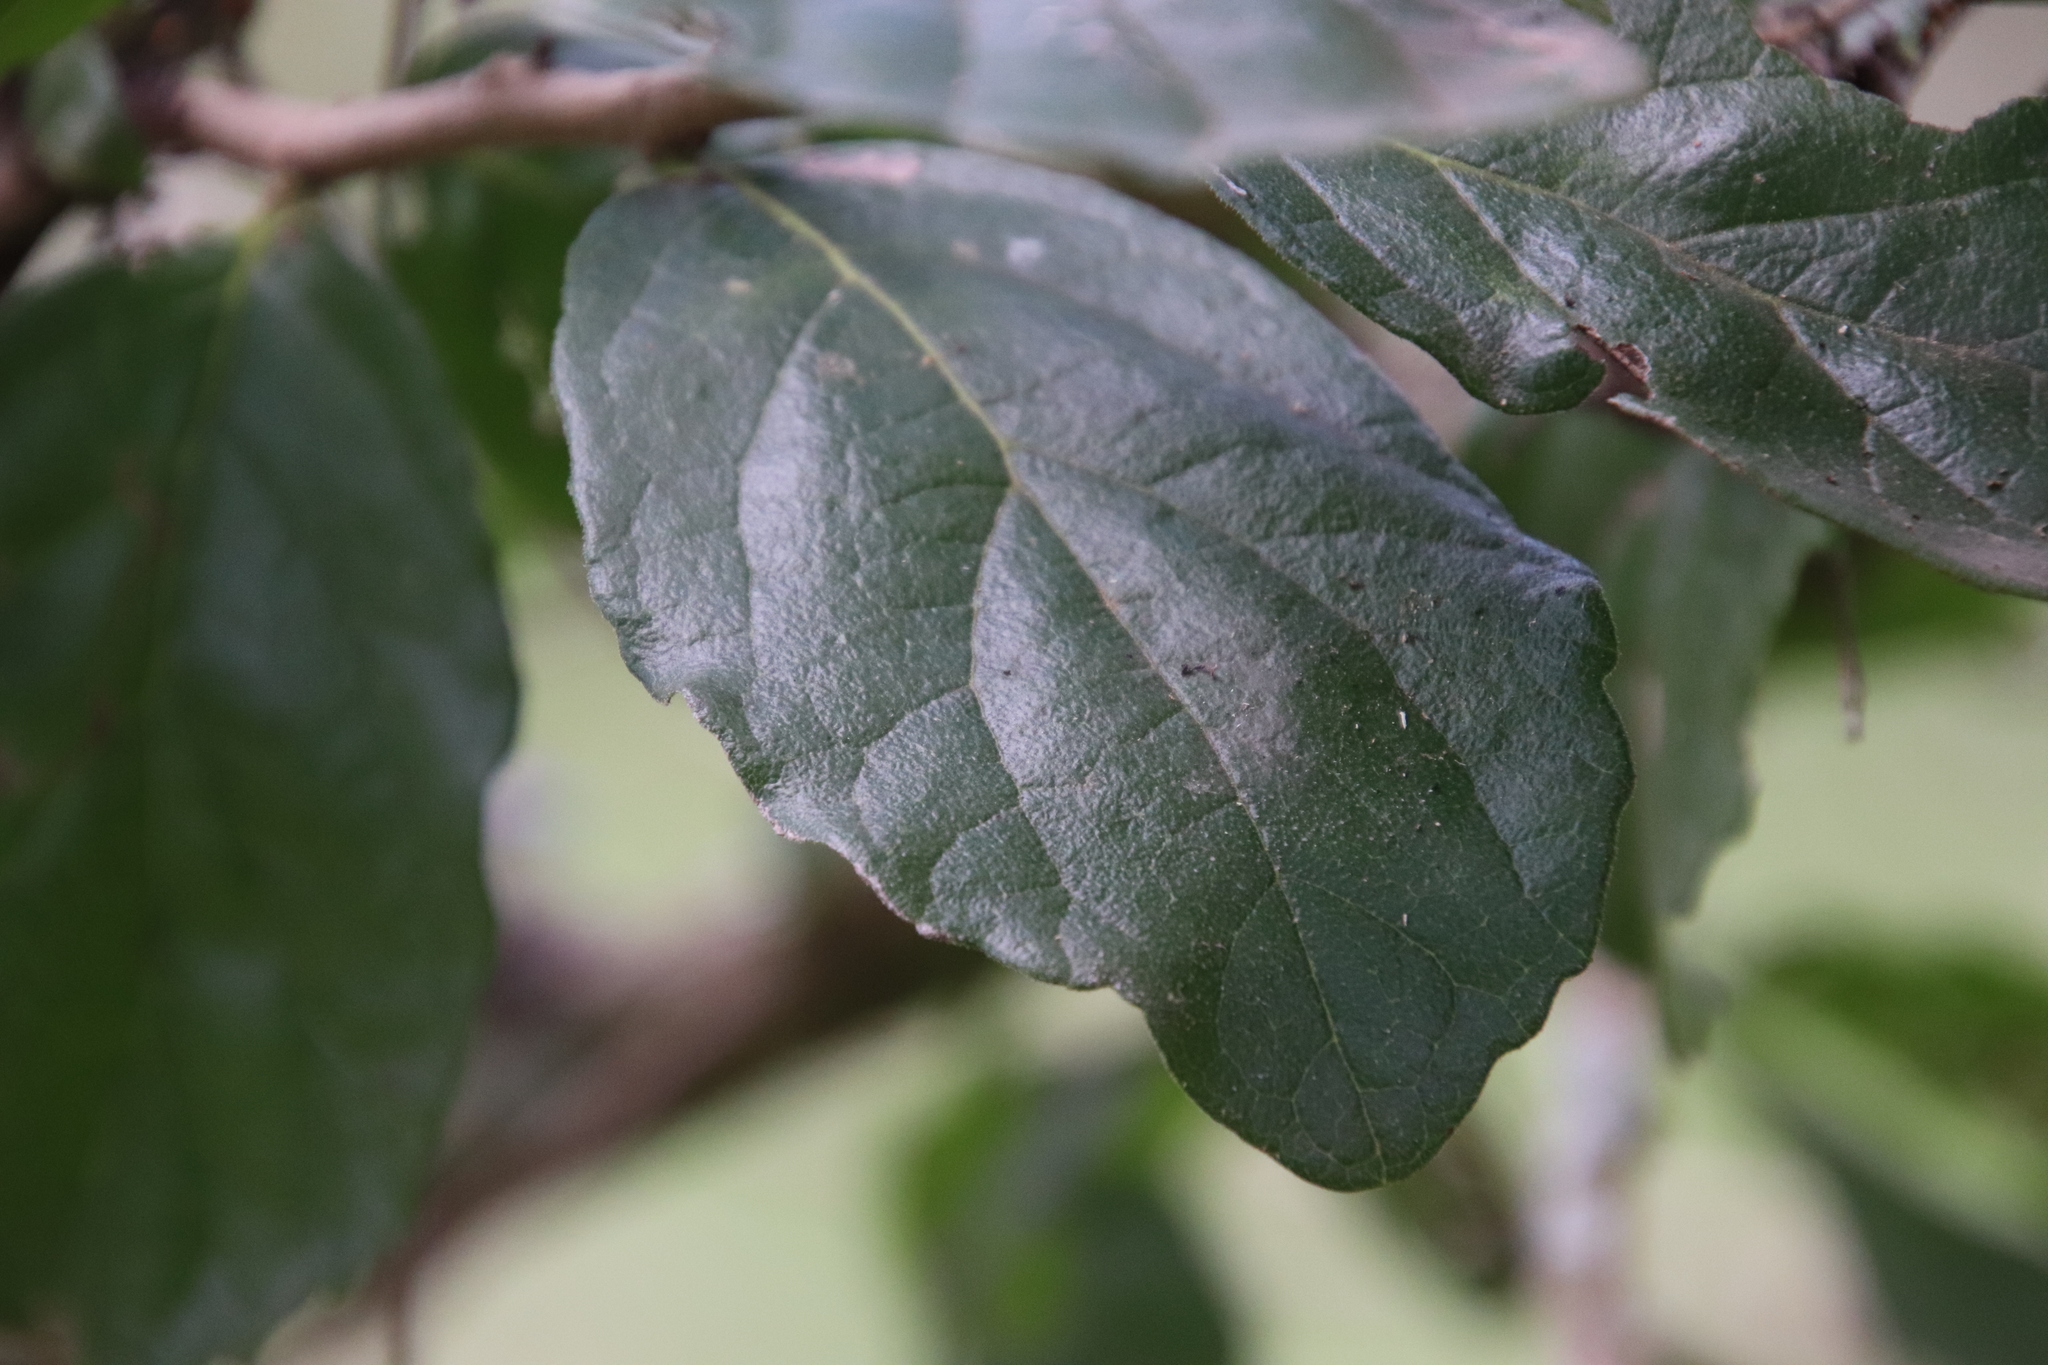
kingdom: Plantae
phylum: Tracheophyta
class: Magnoliopsida
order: Boraginales
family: Ehretiaceae
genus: Ehretia
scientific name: Ehretia anacua
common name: Sugarberry
